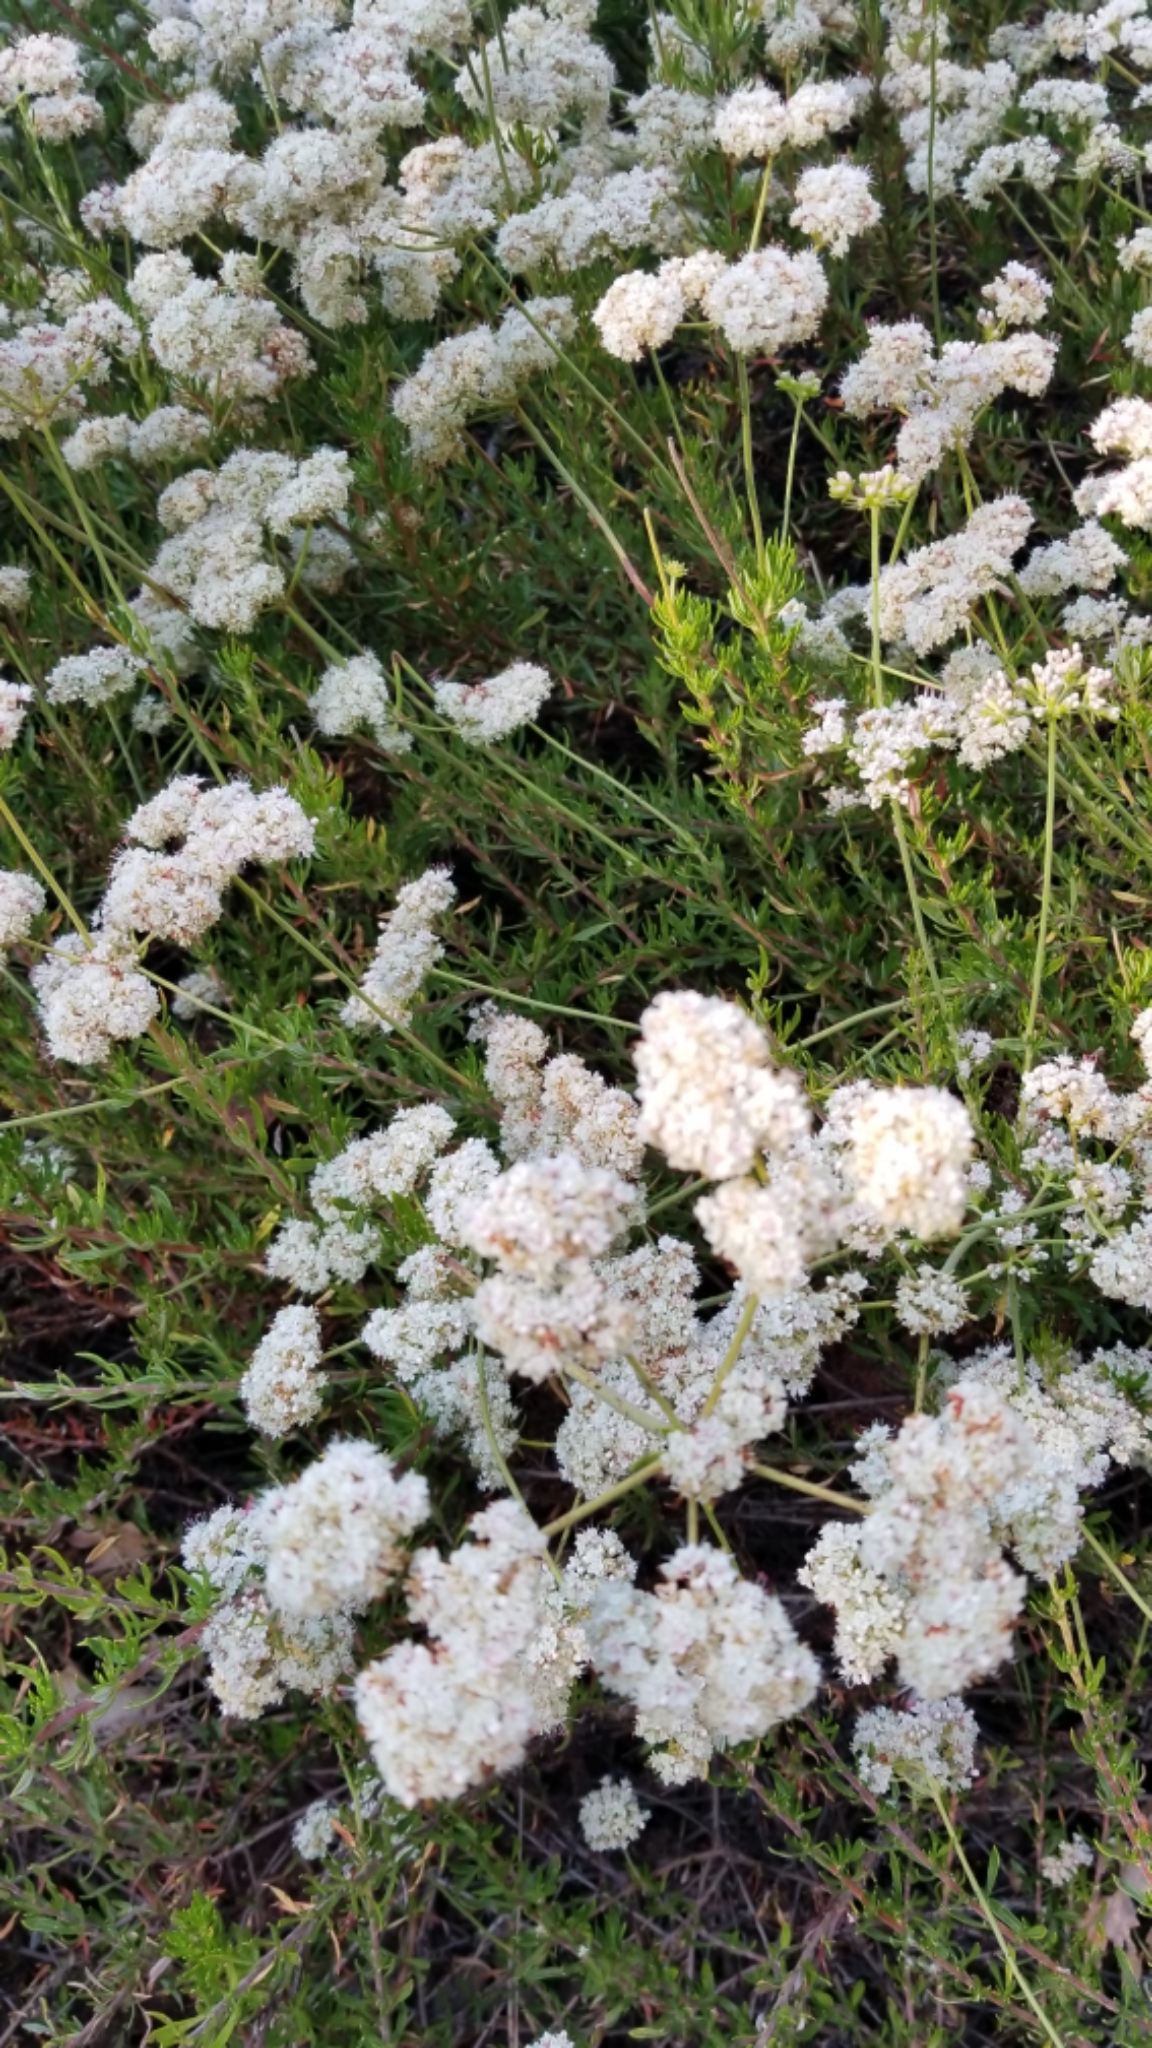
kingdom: Plantae
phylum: Tracheophyta
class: Magnoliopsida
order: Caryophyllales
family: Polygonaceae
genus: Eriogonum
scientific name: Eriogonum fasciculatum
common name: California wild buckwheat
